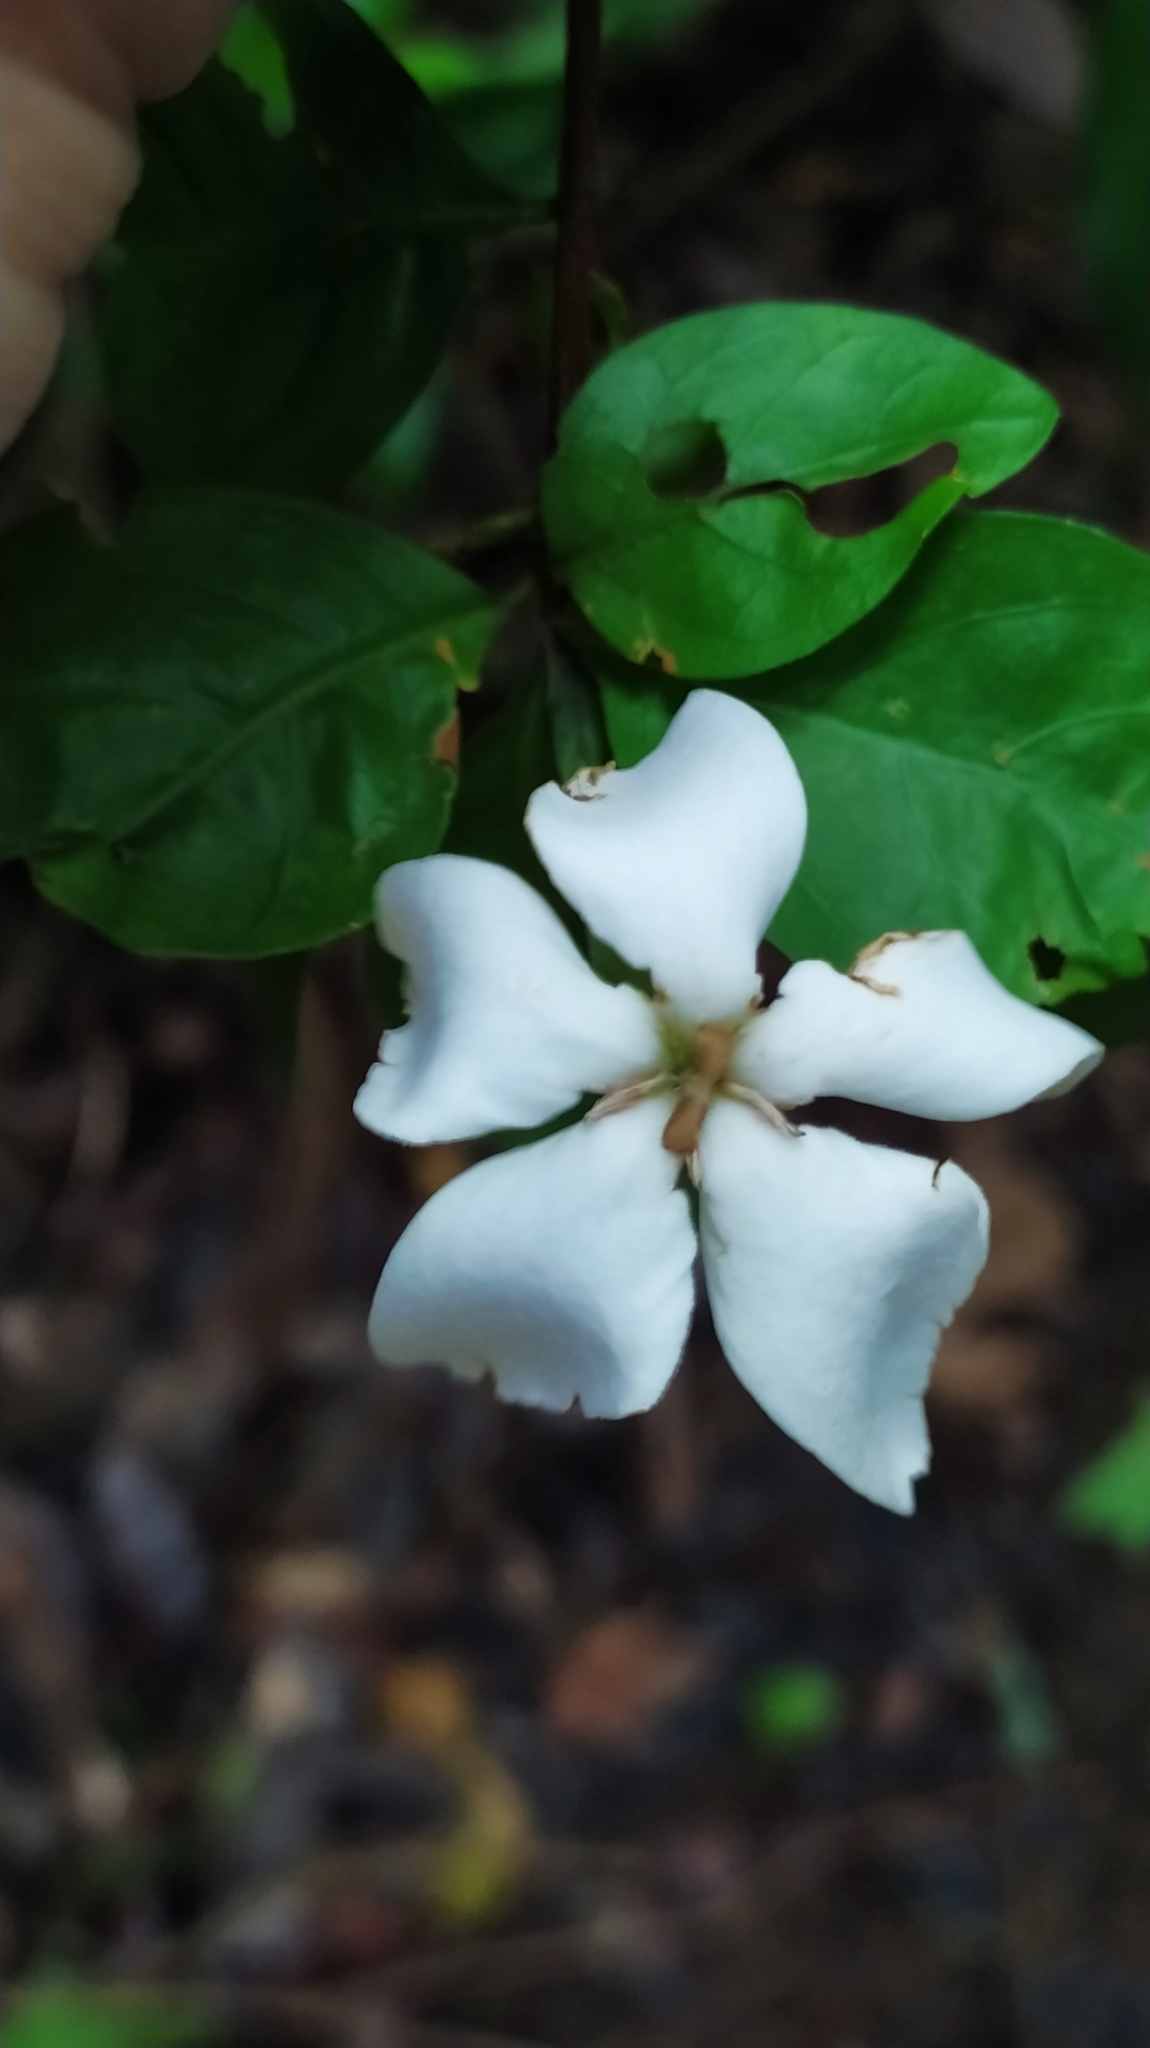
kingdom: Plantae
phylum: Tracheophyta
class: Magnoliopsida
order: Gentianales
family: Rubiaceae
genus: Rosenbergiodendron
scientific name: Rosenbergiodendron densiflorum
